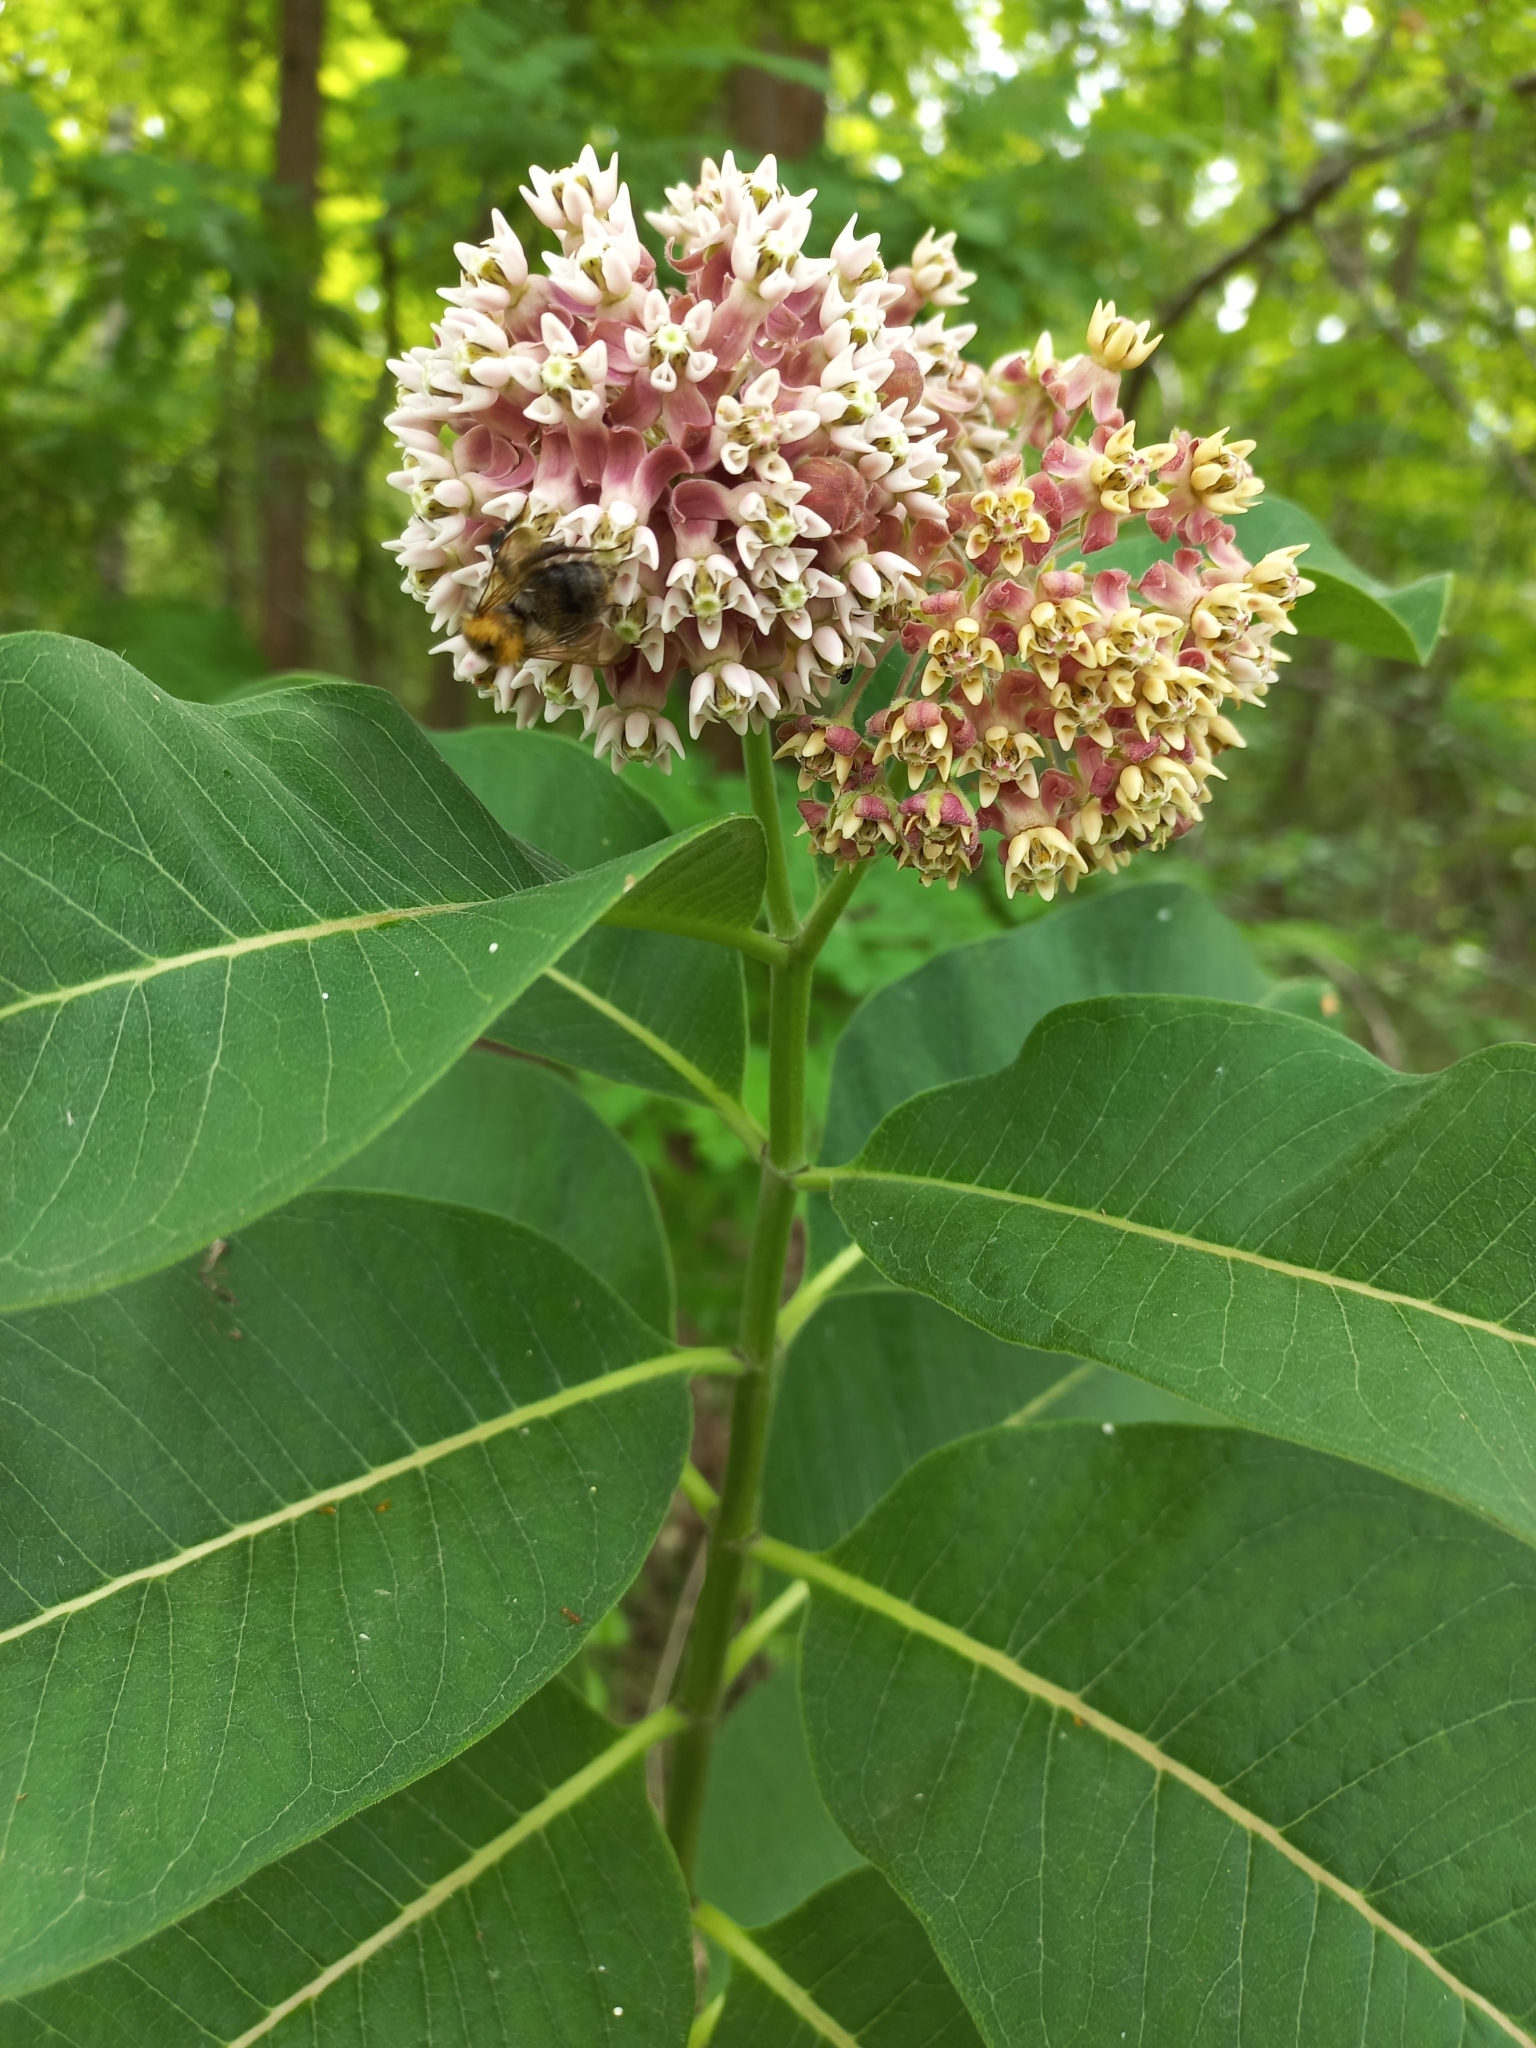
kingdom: Plantae
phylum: Tracheophyta
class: Magnoliopsida
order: Gentianales
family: Apocynaceae
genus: Asclepias
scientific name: Asclepias syriaca
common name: Common milkweed
